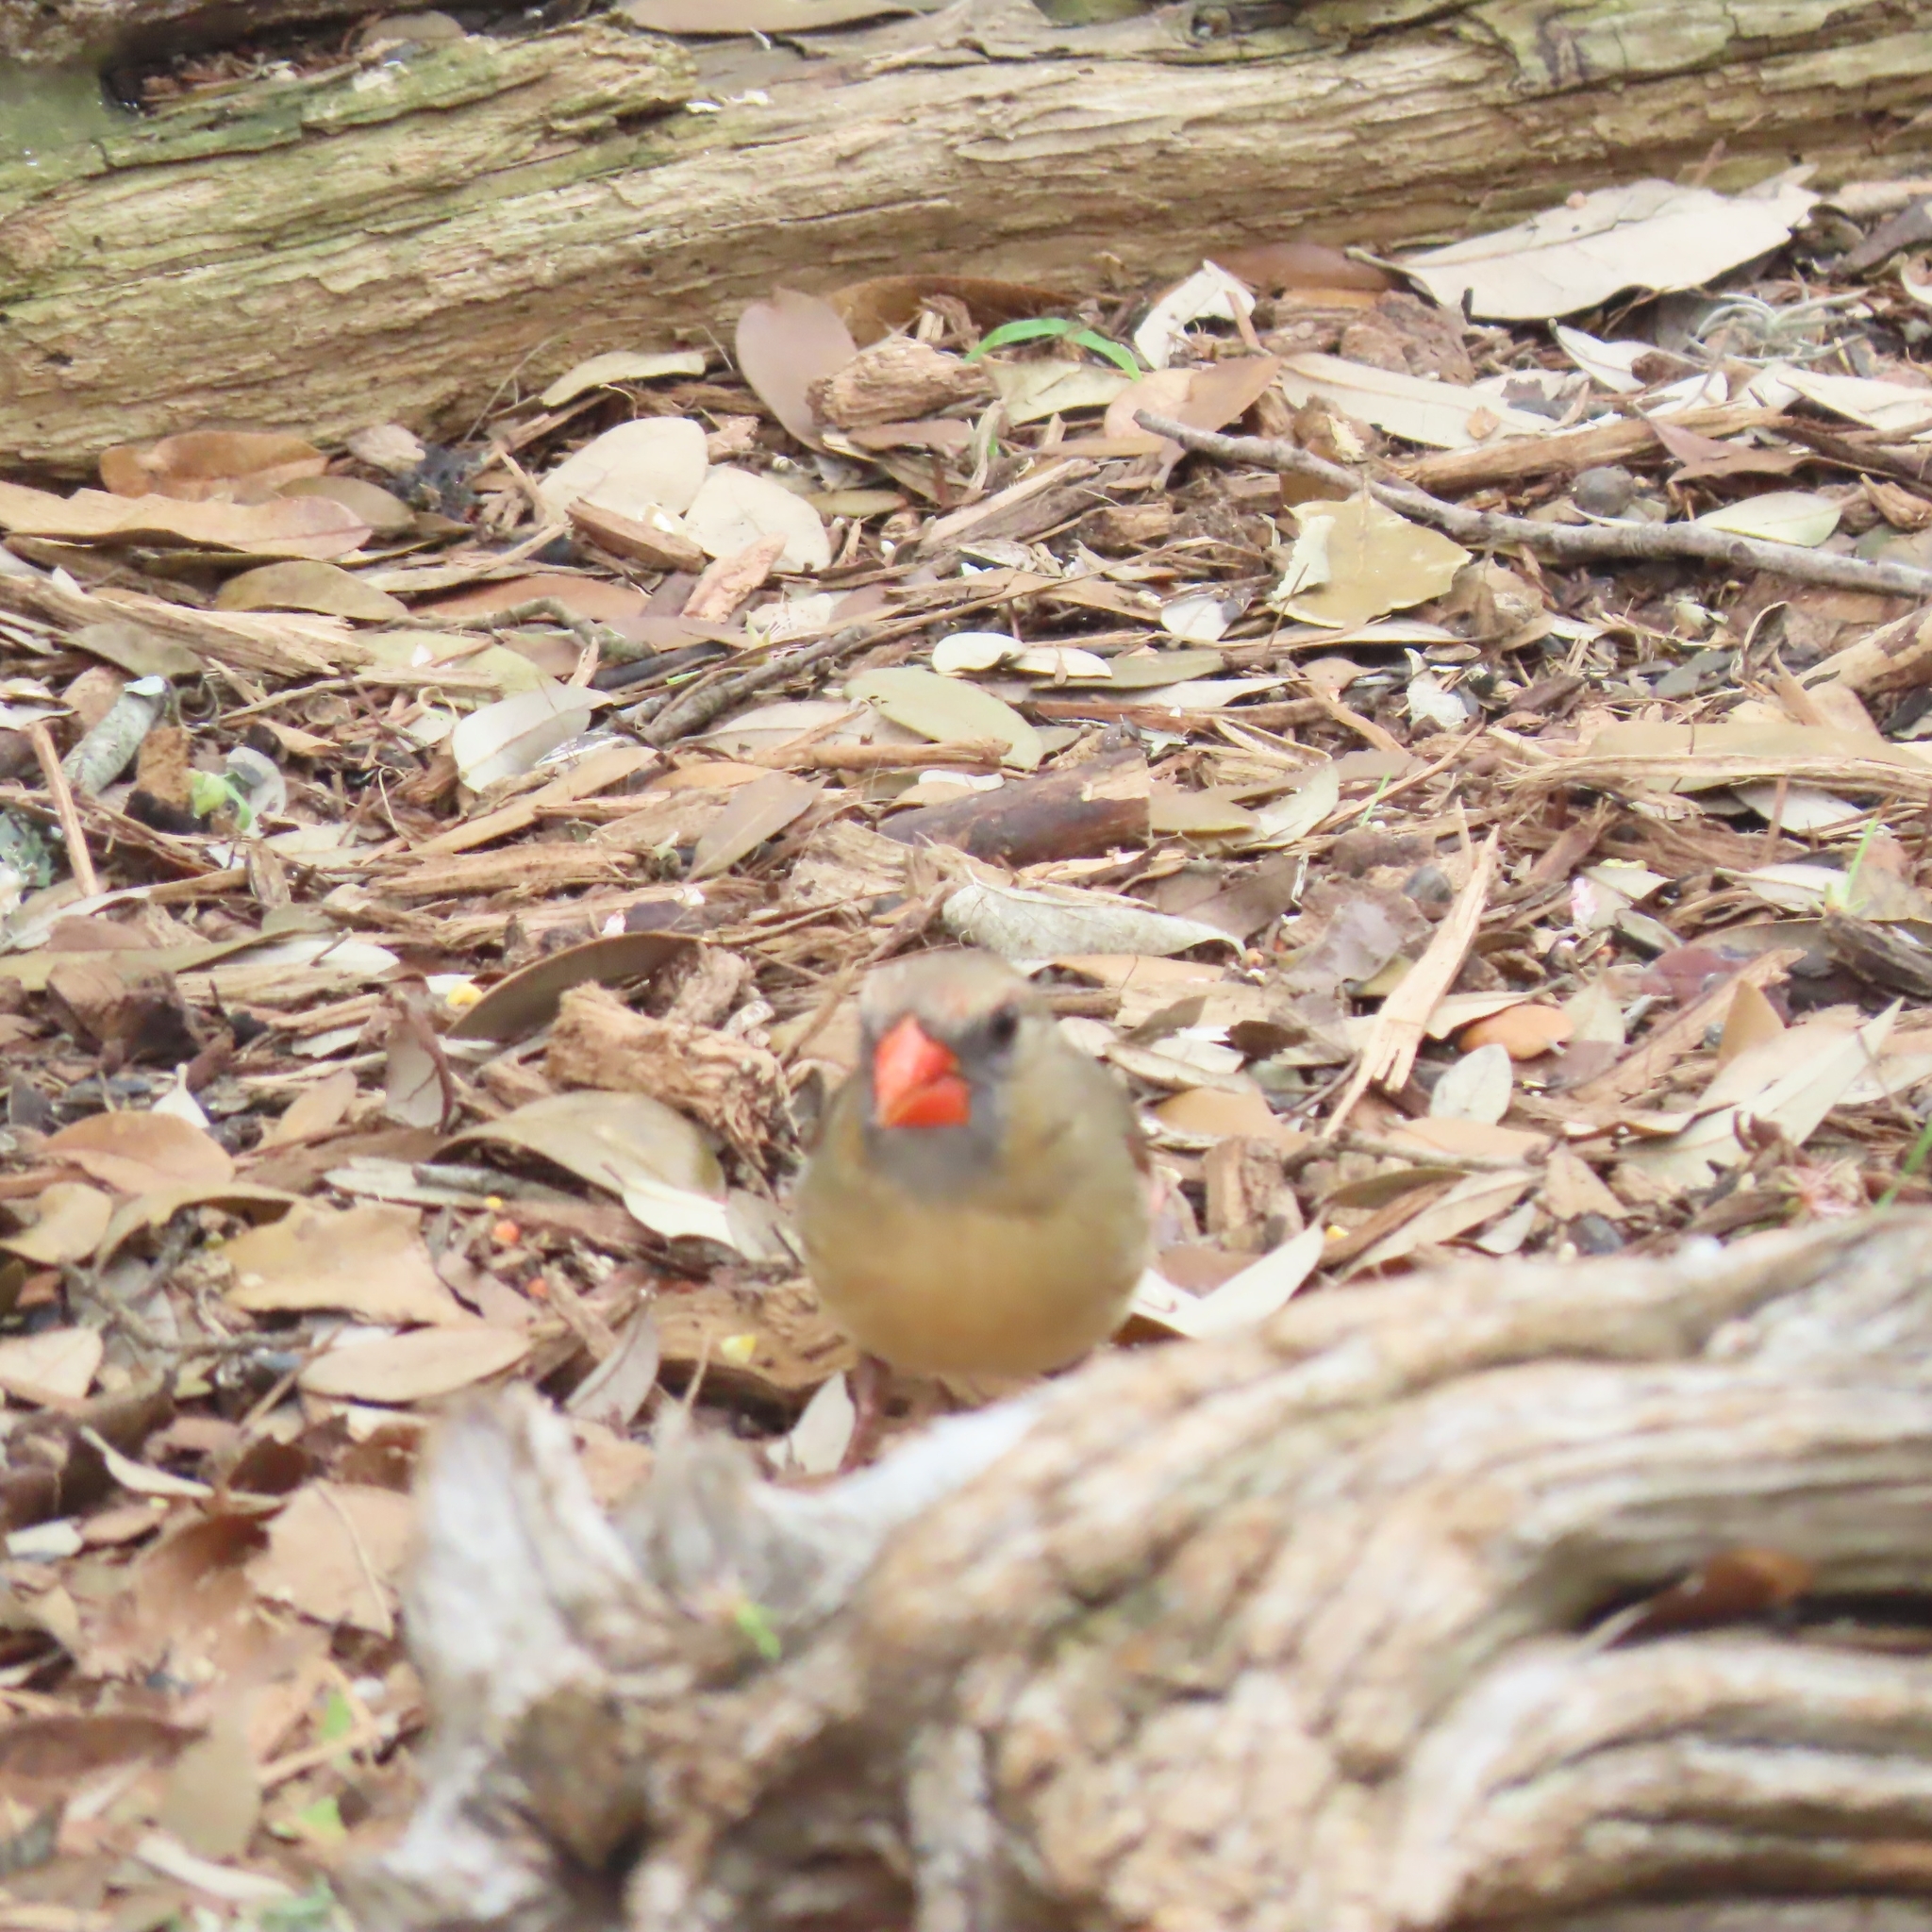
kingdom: Animalia
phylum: Chordata
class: Aves
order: Passeriformes
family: Cardinalidae
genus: Cardinalis
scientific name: Cardinalis cardinalis
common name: Northern cardinal
